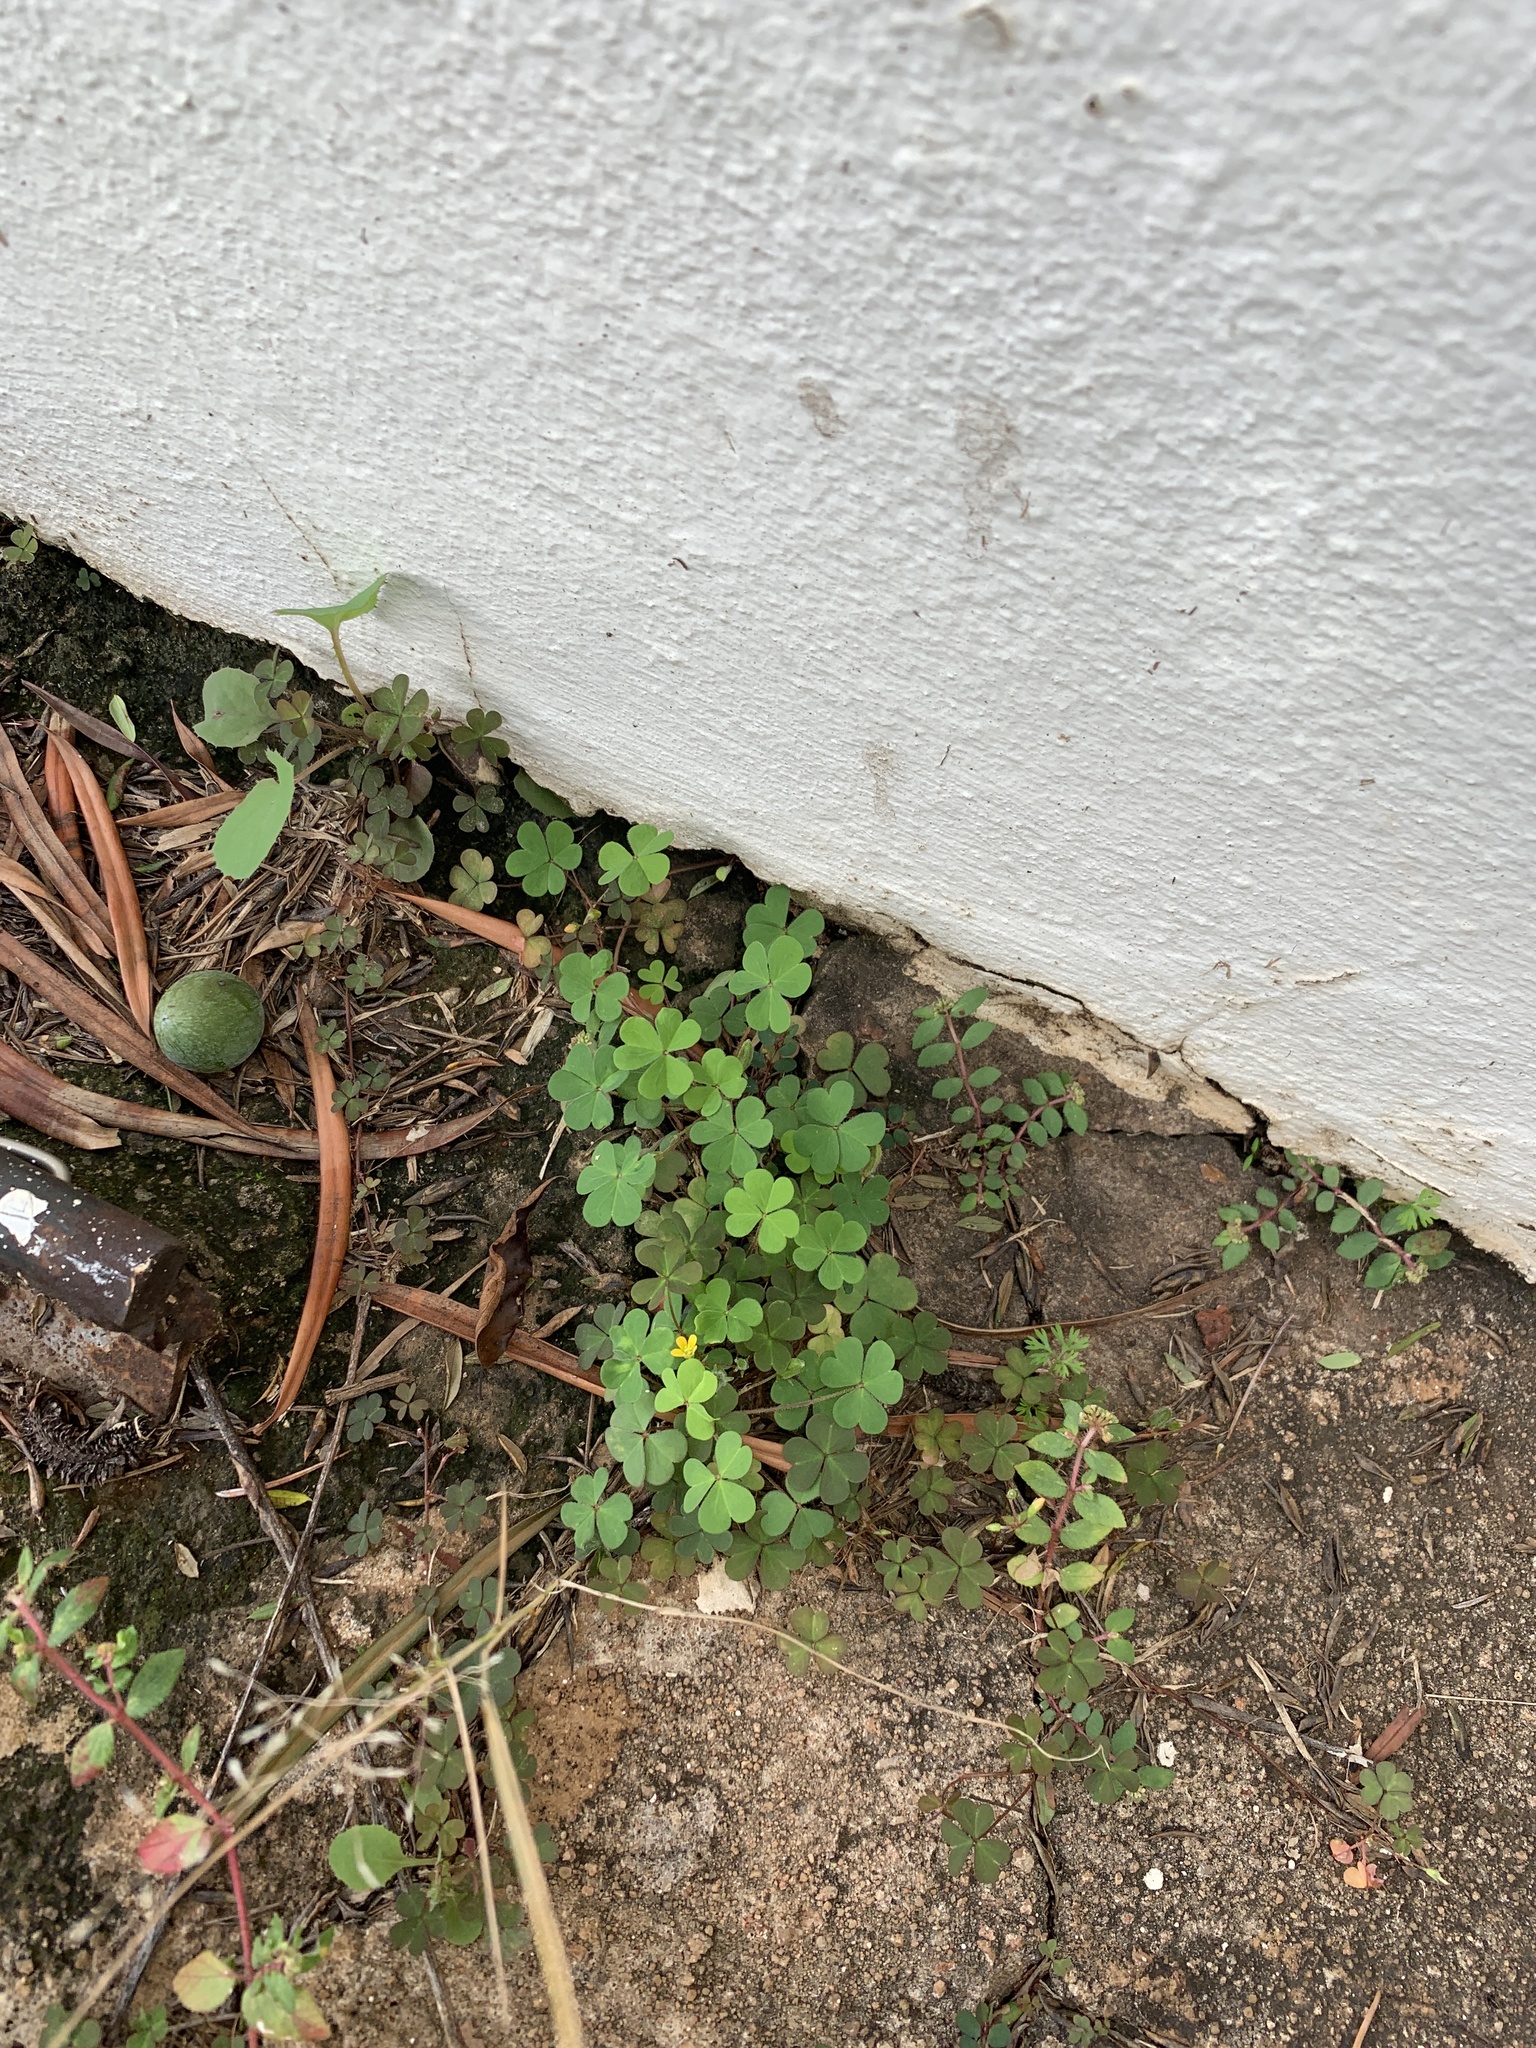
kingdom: Plantae
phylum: Tracheophyta
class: Magnoliopsida
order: Oxalidales
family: Oxalidaceae
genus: Oxalis
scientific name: Oxalis corniculata
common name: Procumbent yellow-sorrel
